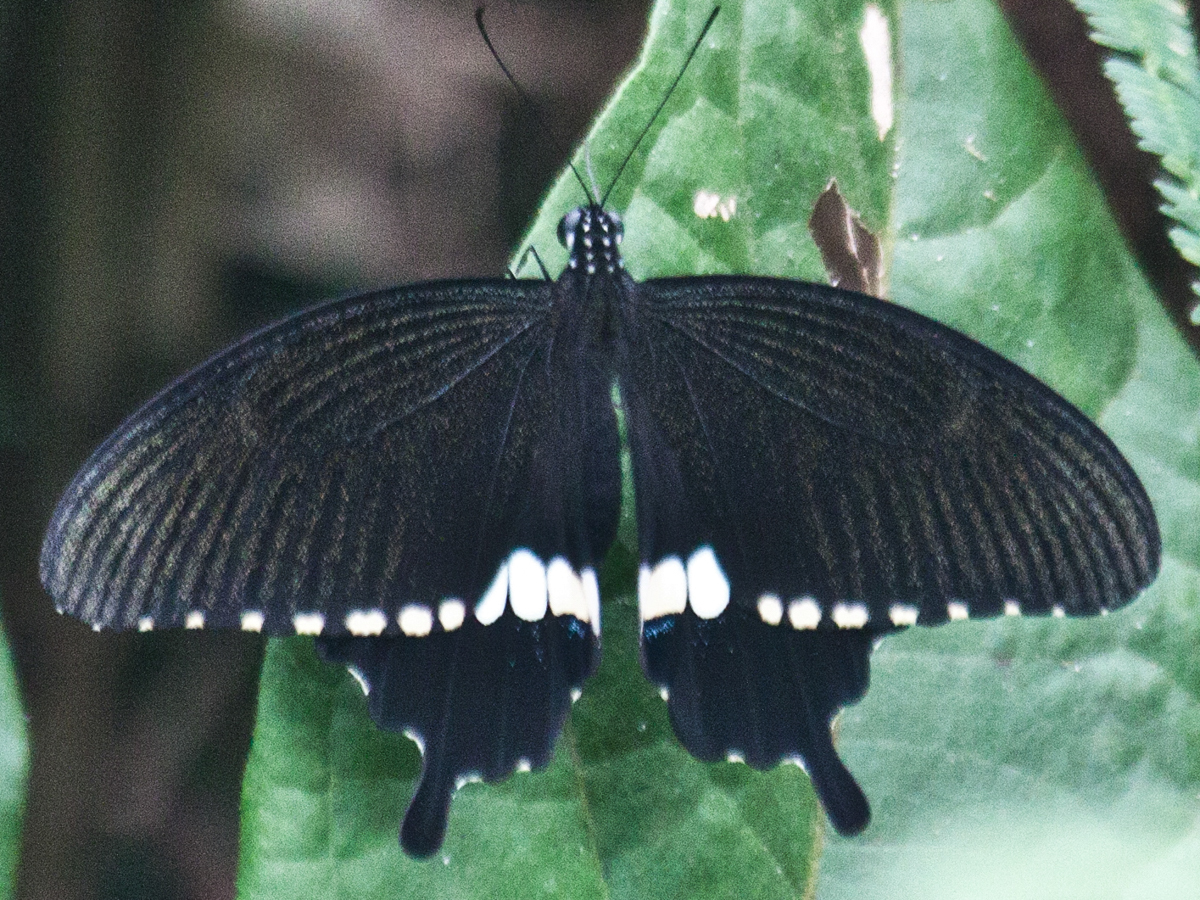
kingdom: Animalia
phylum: Arthropoda
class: Insecta
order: Lepidoptera
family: Papilionidae
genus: Papilio
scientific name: Papilio polytes
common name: Common mormon
